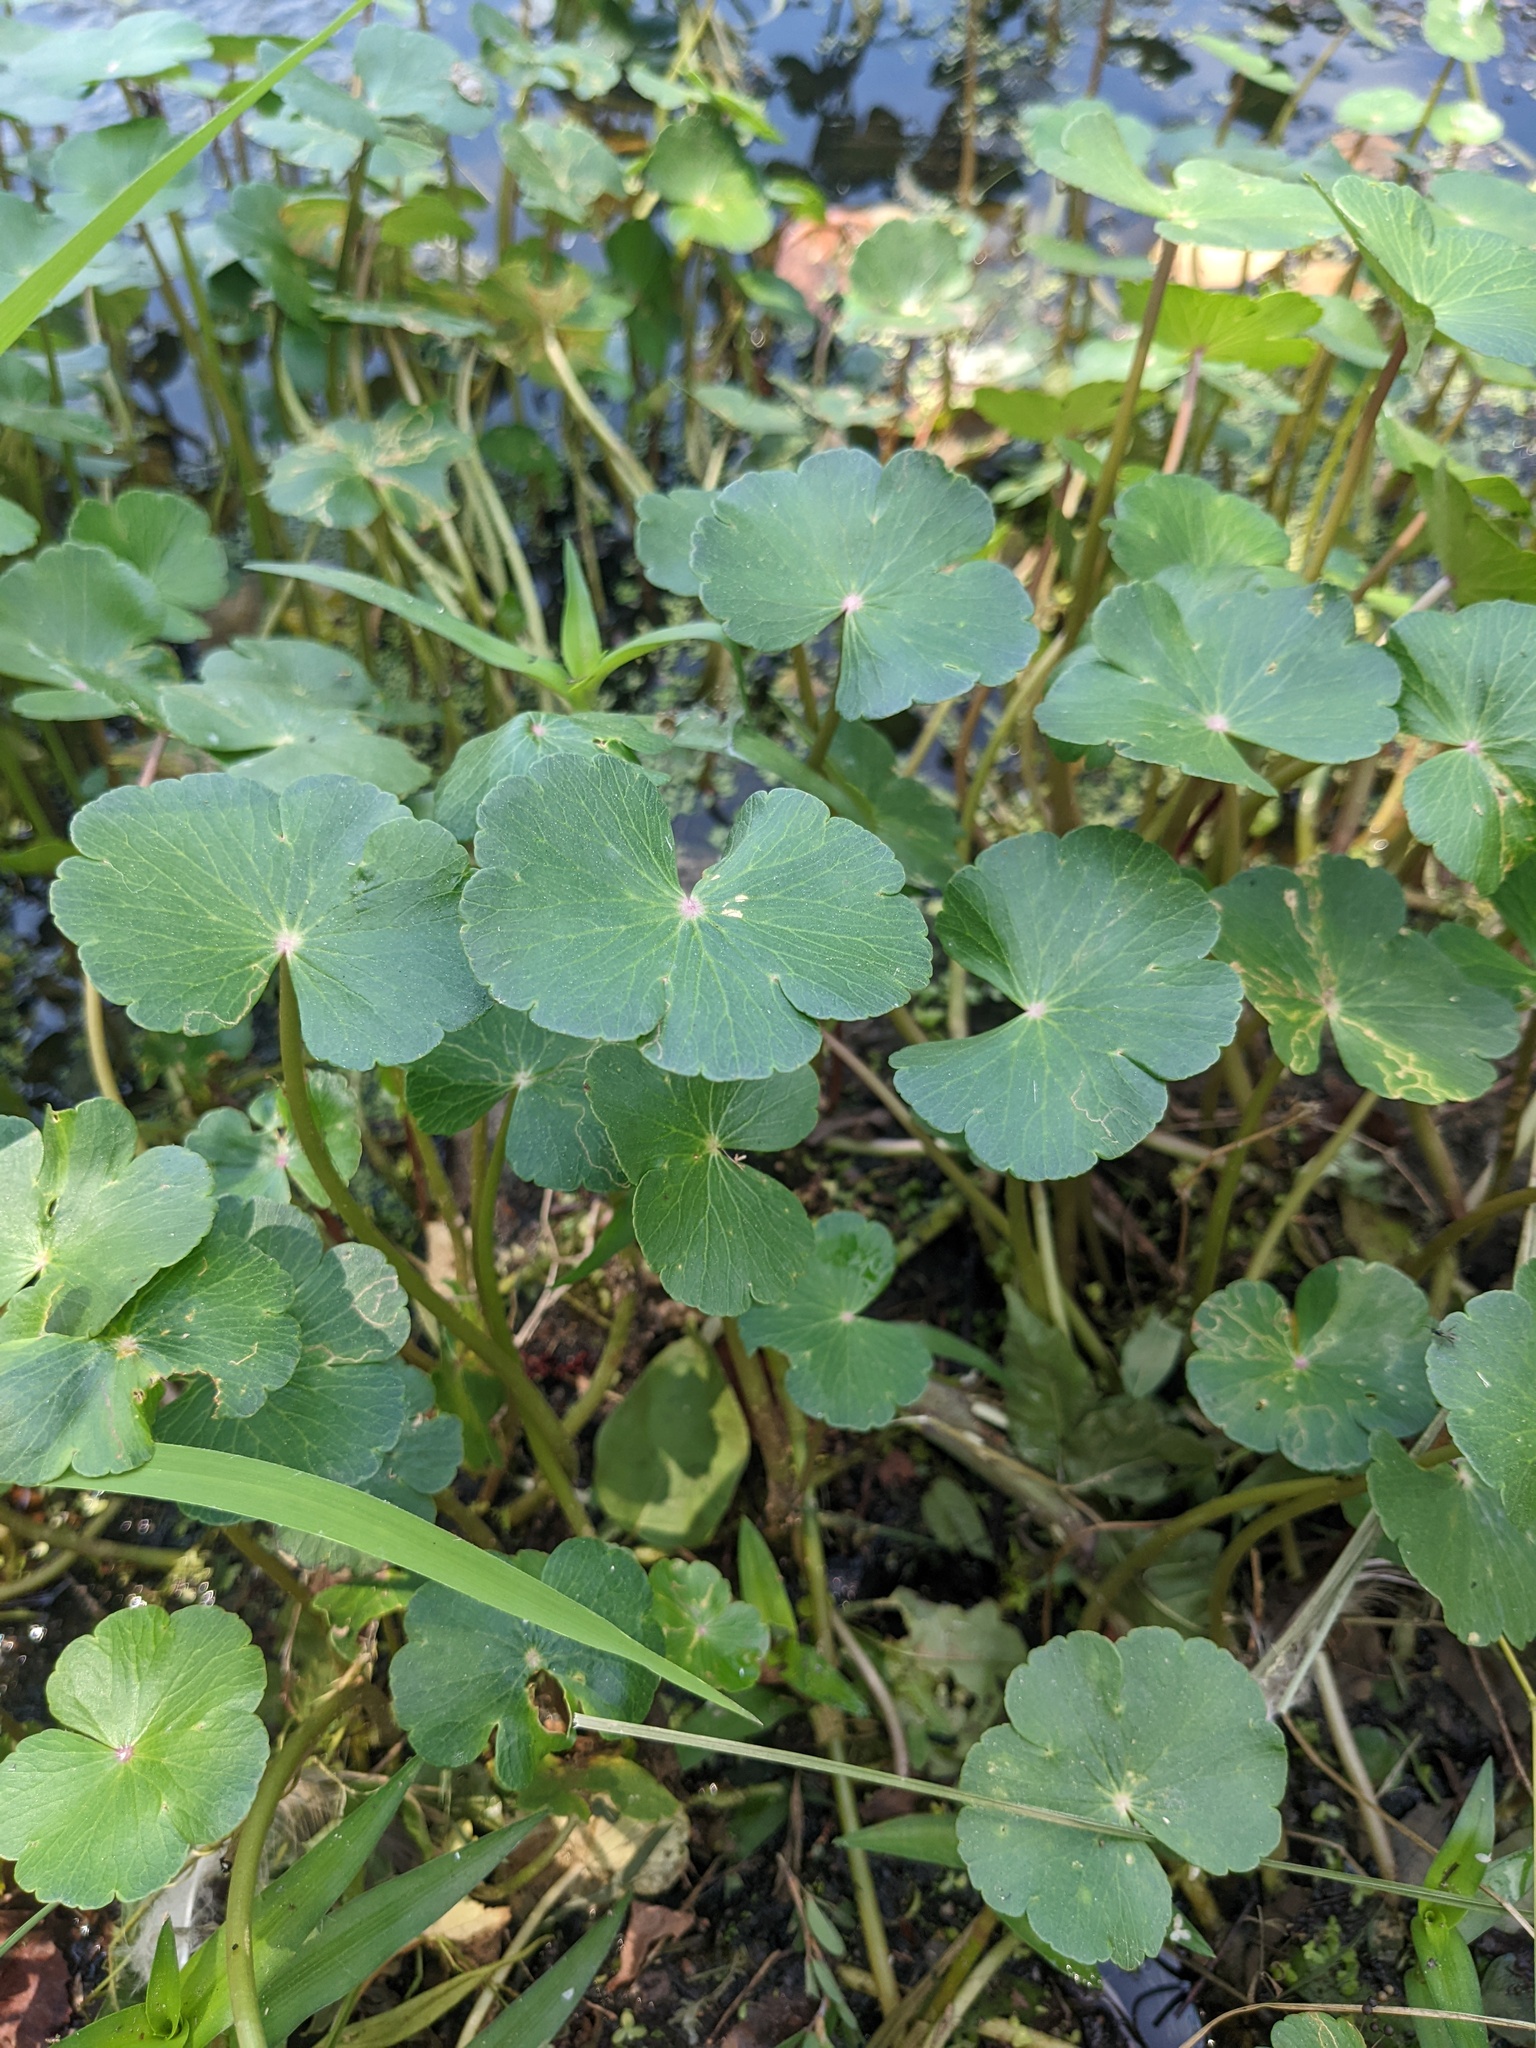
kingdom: Plantae
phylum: Tracheophyta
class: Magnoliopsida
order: Apiales
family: Araliaceae
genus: Hydrocotyle
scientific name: Hydrocotyle ranunculoides
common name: Floating pennywort
